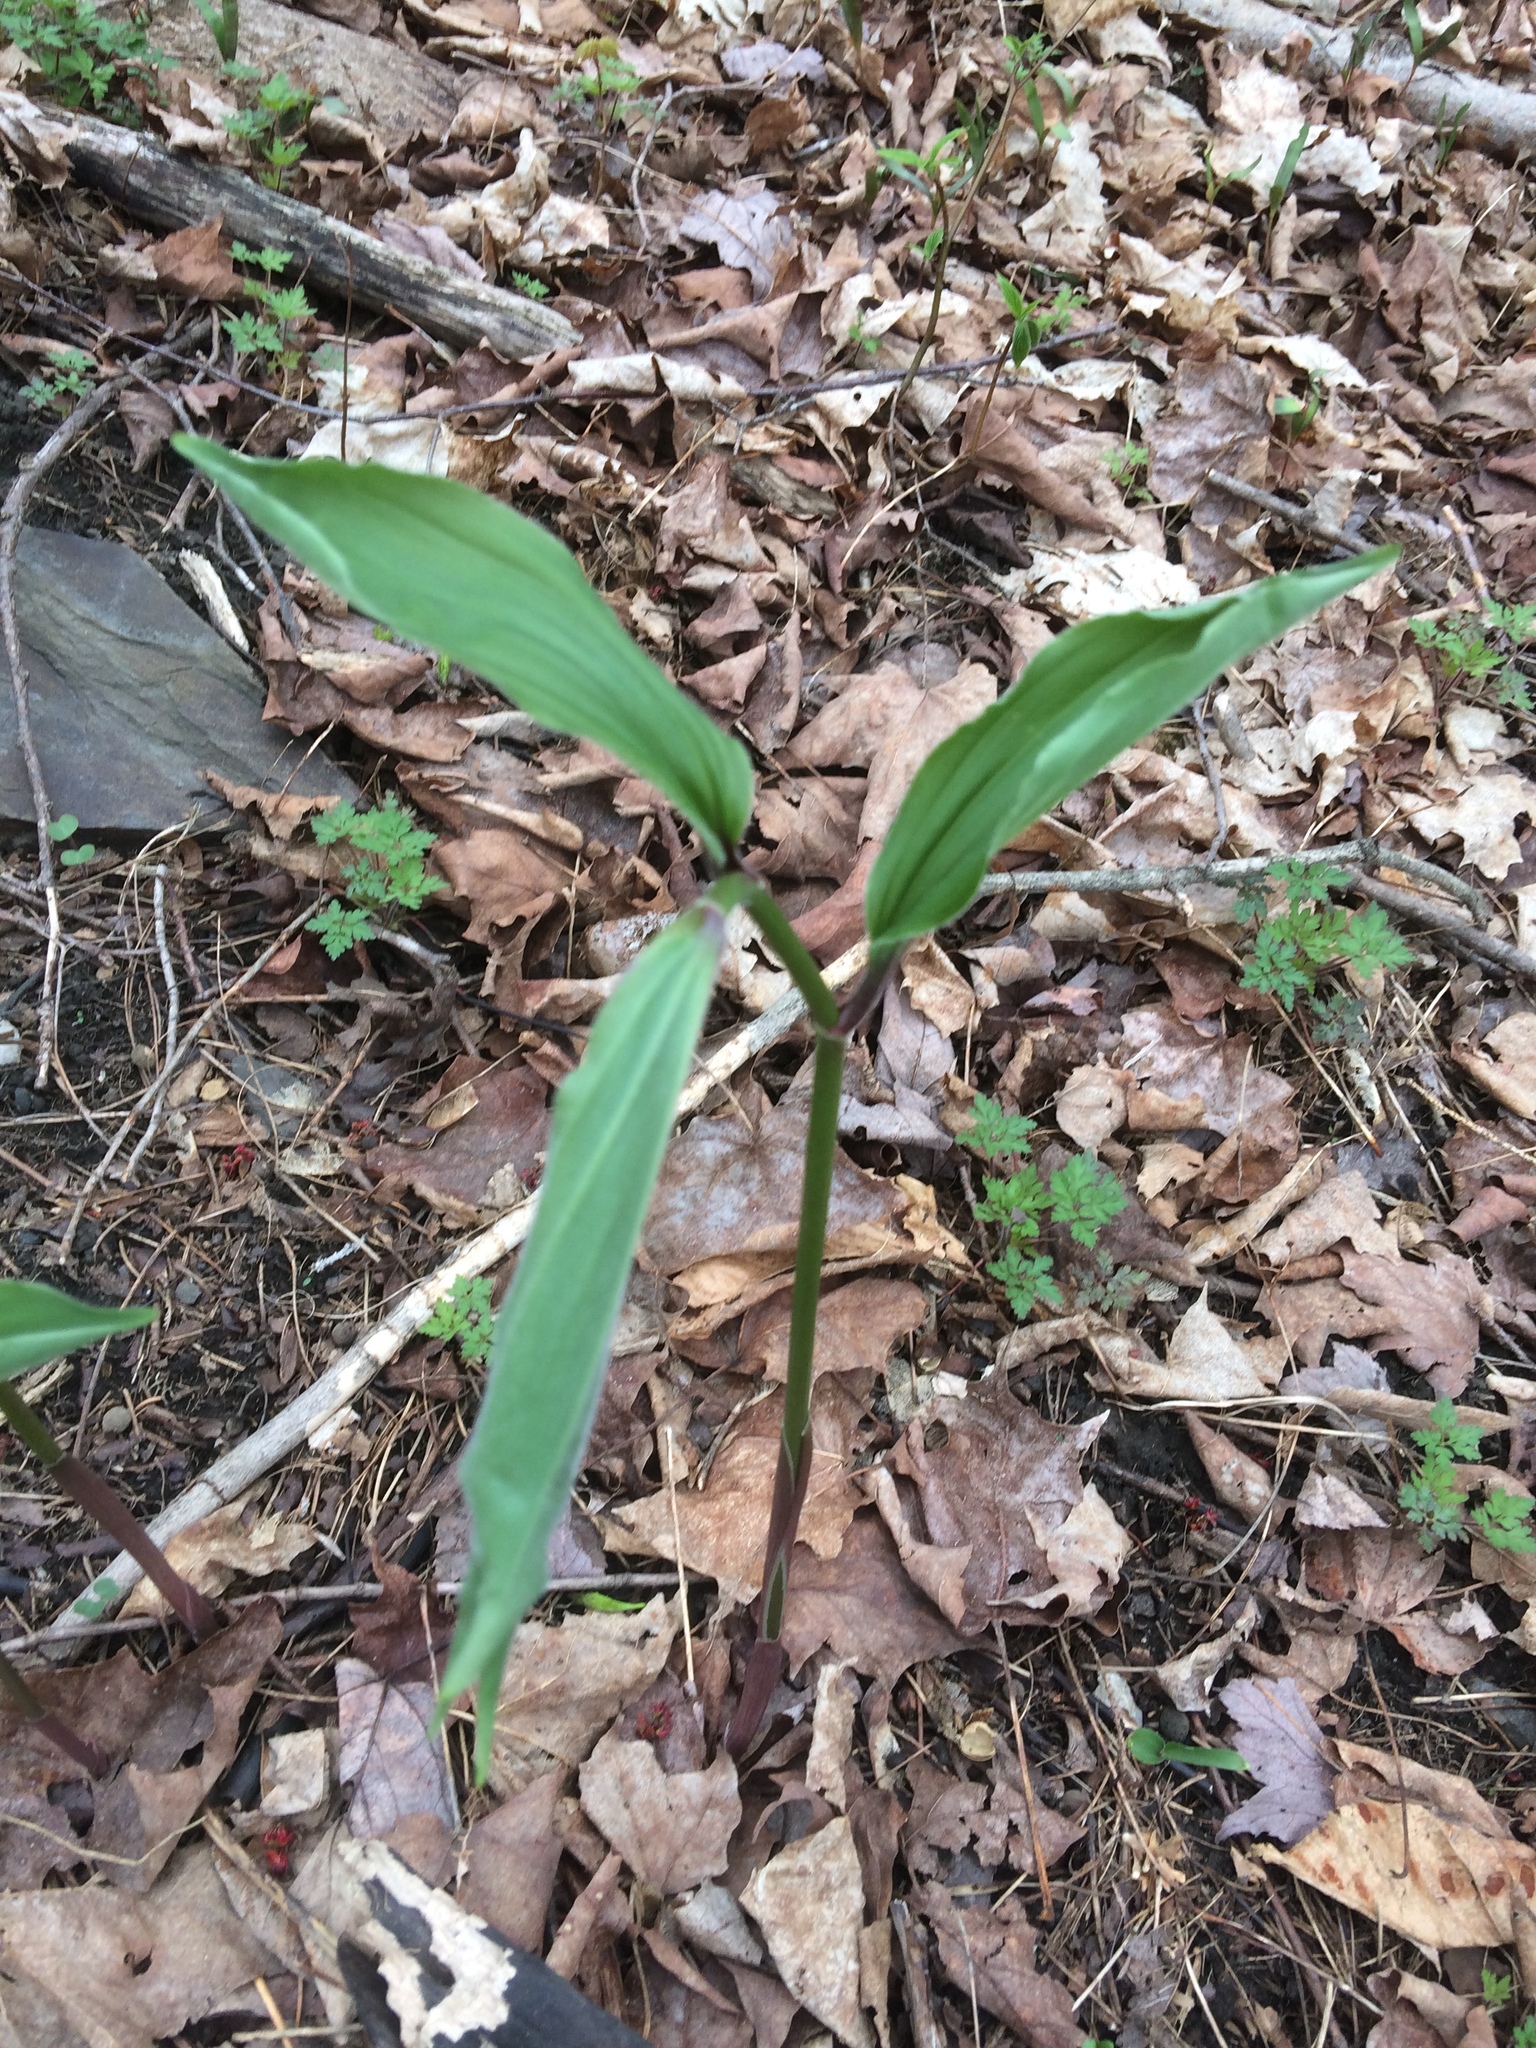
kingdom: Plantae
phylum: Tracheophyta
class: Liliopsida
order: Asparagales
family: Asparagaceae
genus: Maianthemum
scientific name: Maianthemum racemosum
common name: False spikenard
